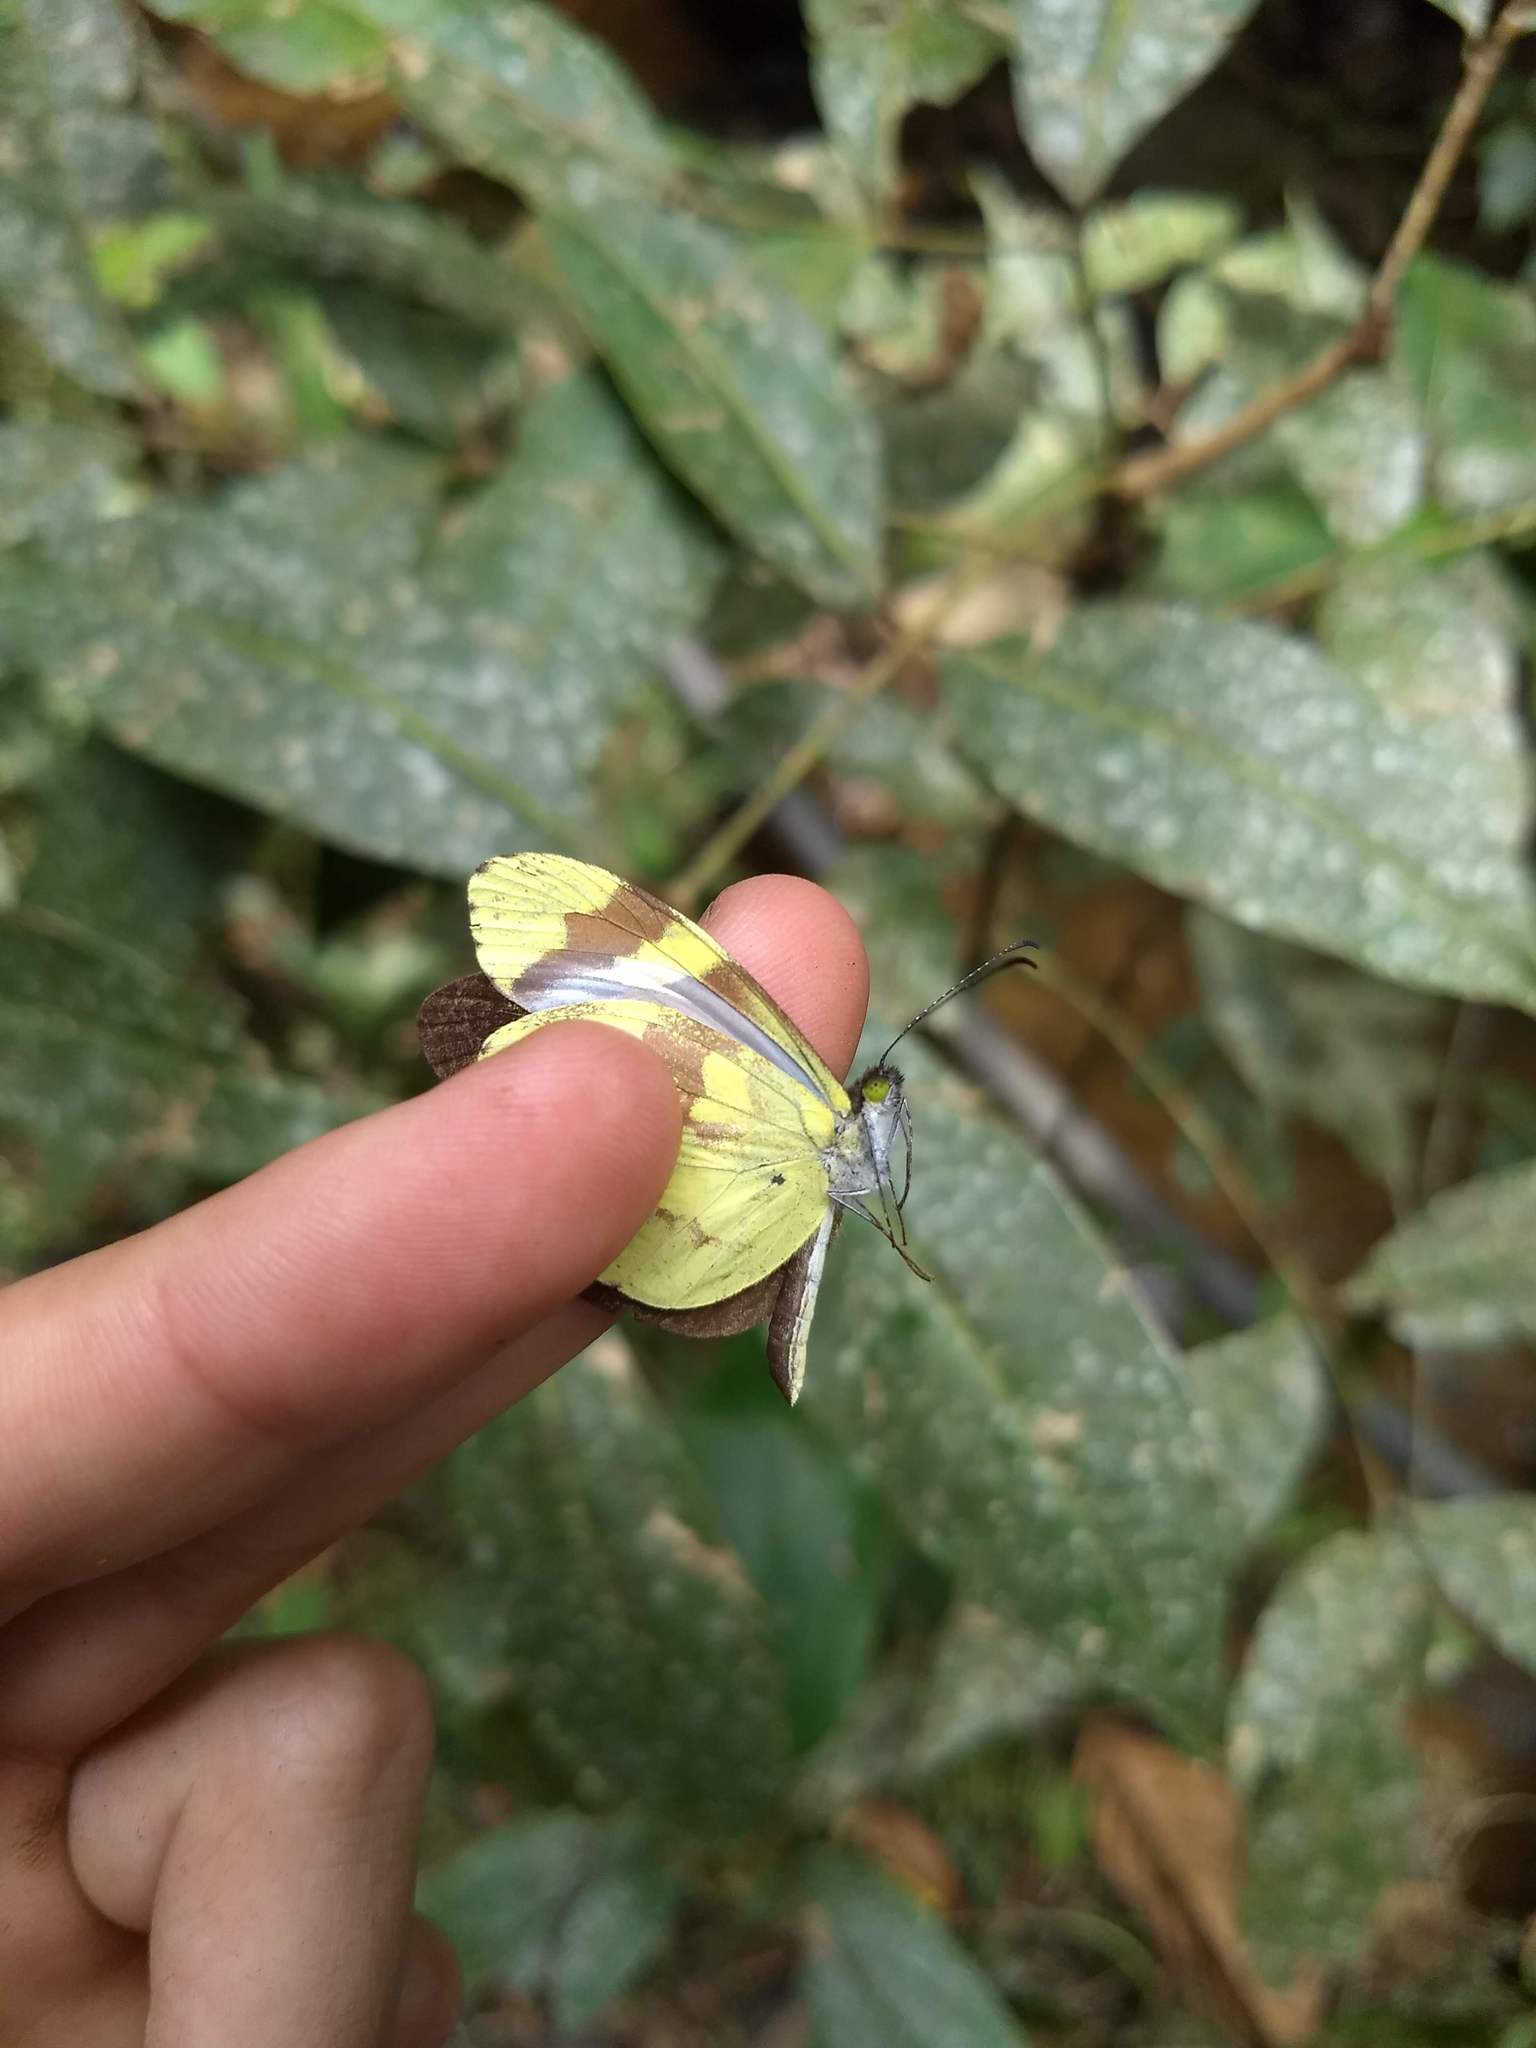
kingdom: Animalia
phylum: Arthropoda
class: Insecta
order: Lepidoptera
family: Pieridae
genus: Dismorphia
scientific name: Dismorphia medora
